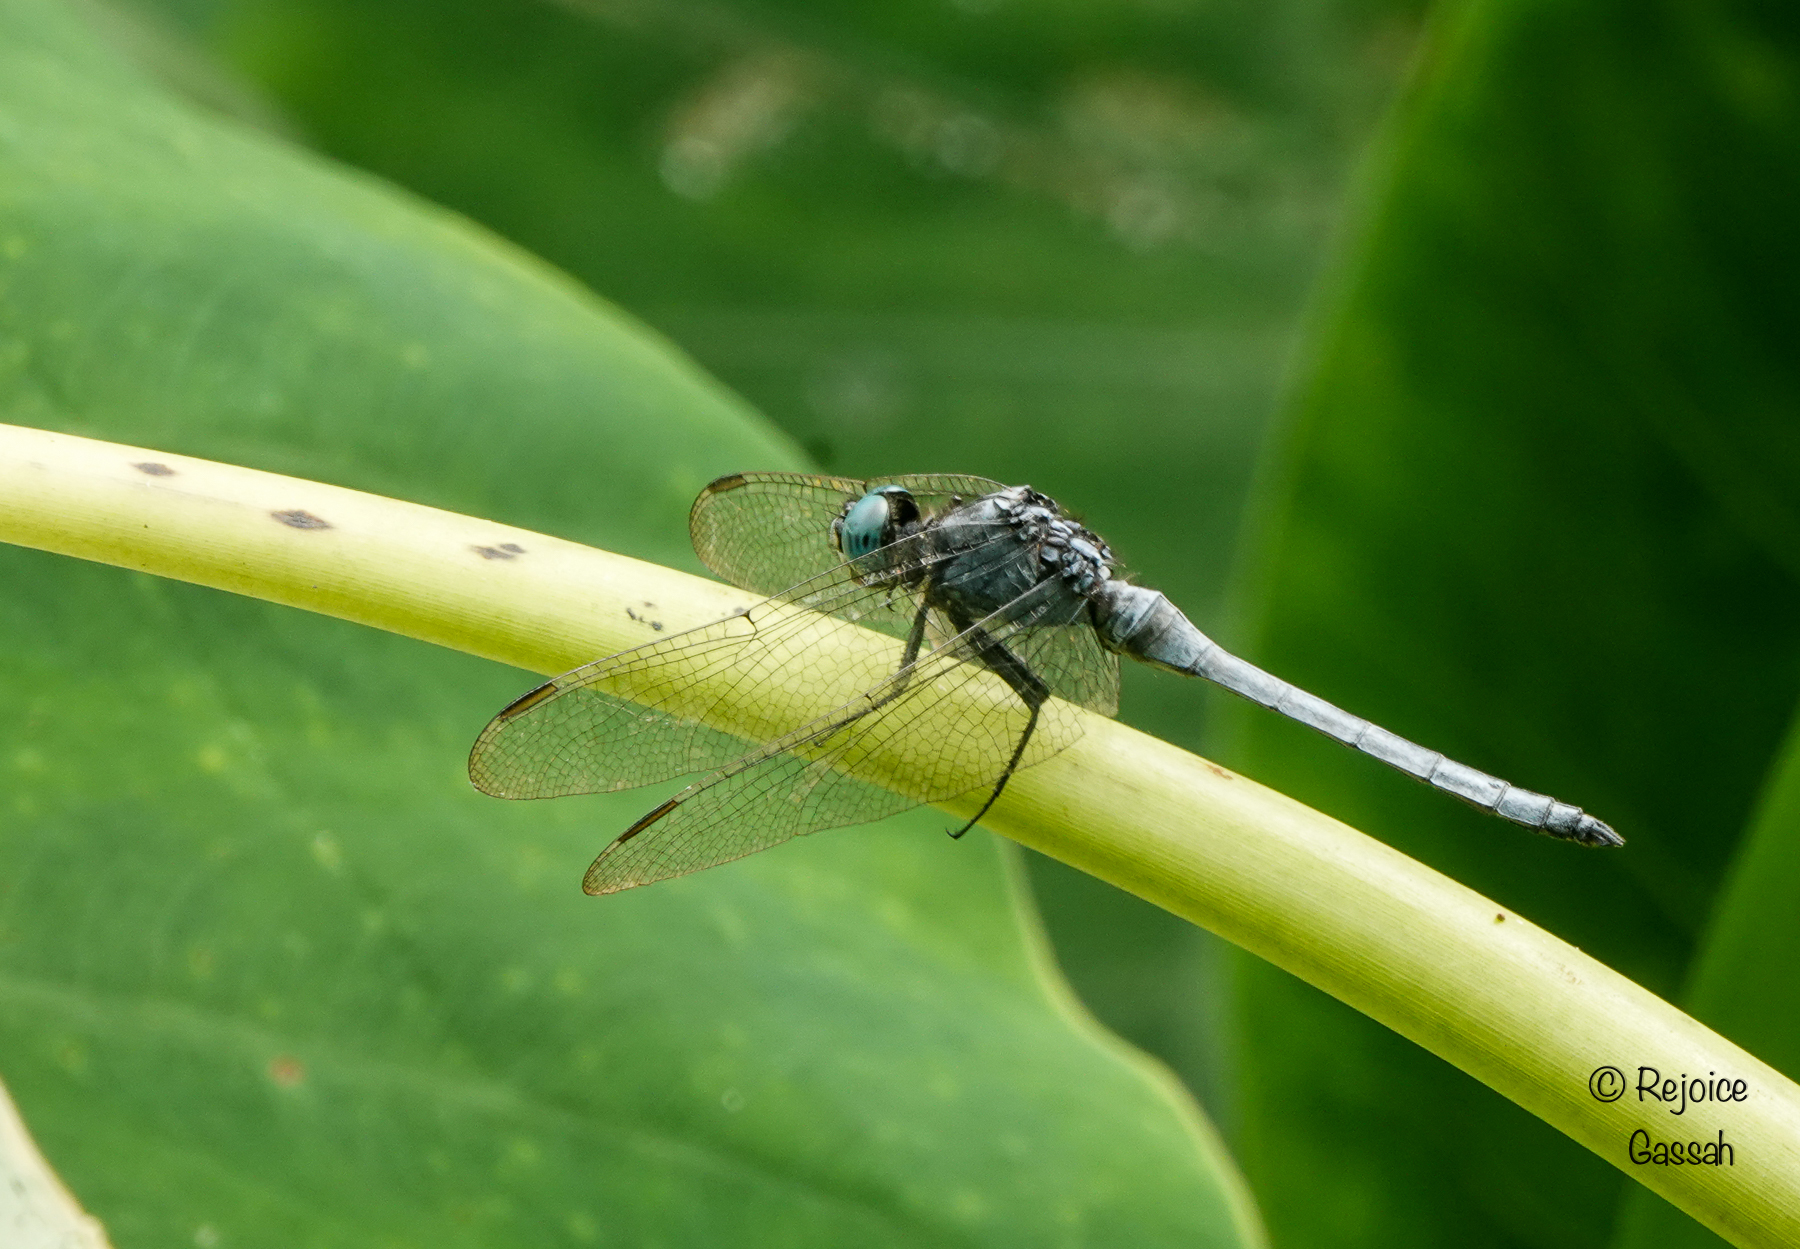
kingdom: Animalia
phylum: Arthropoda
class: Insecta
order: Odonata
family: Libellulidae
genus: Orthetrum
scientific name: Orthetrum luzonicum
